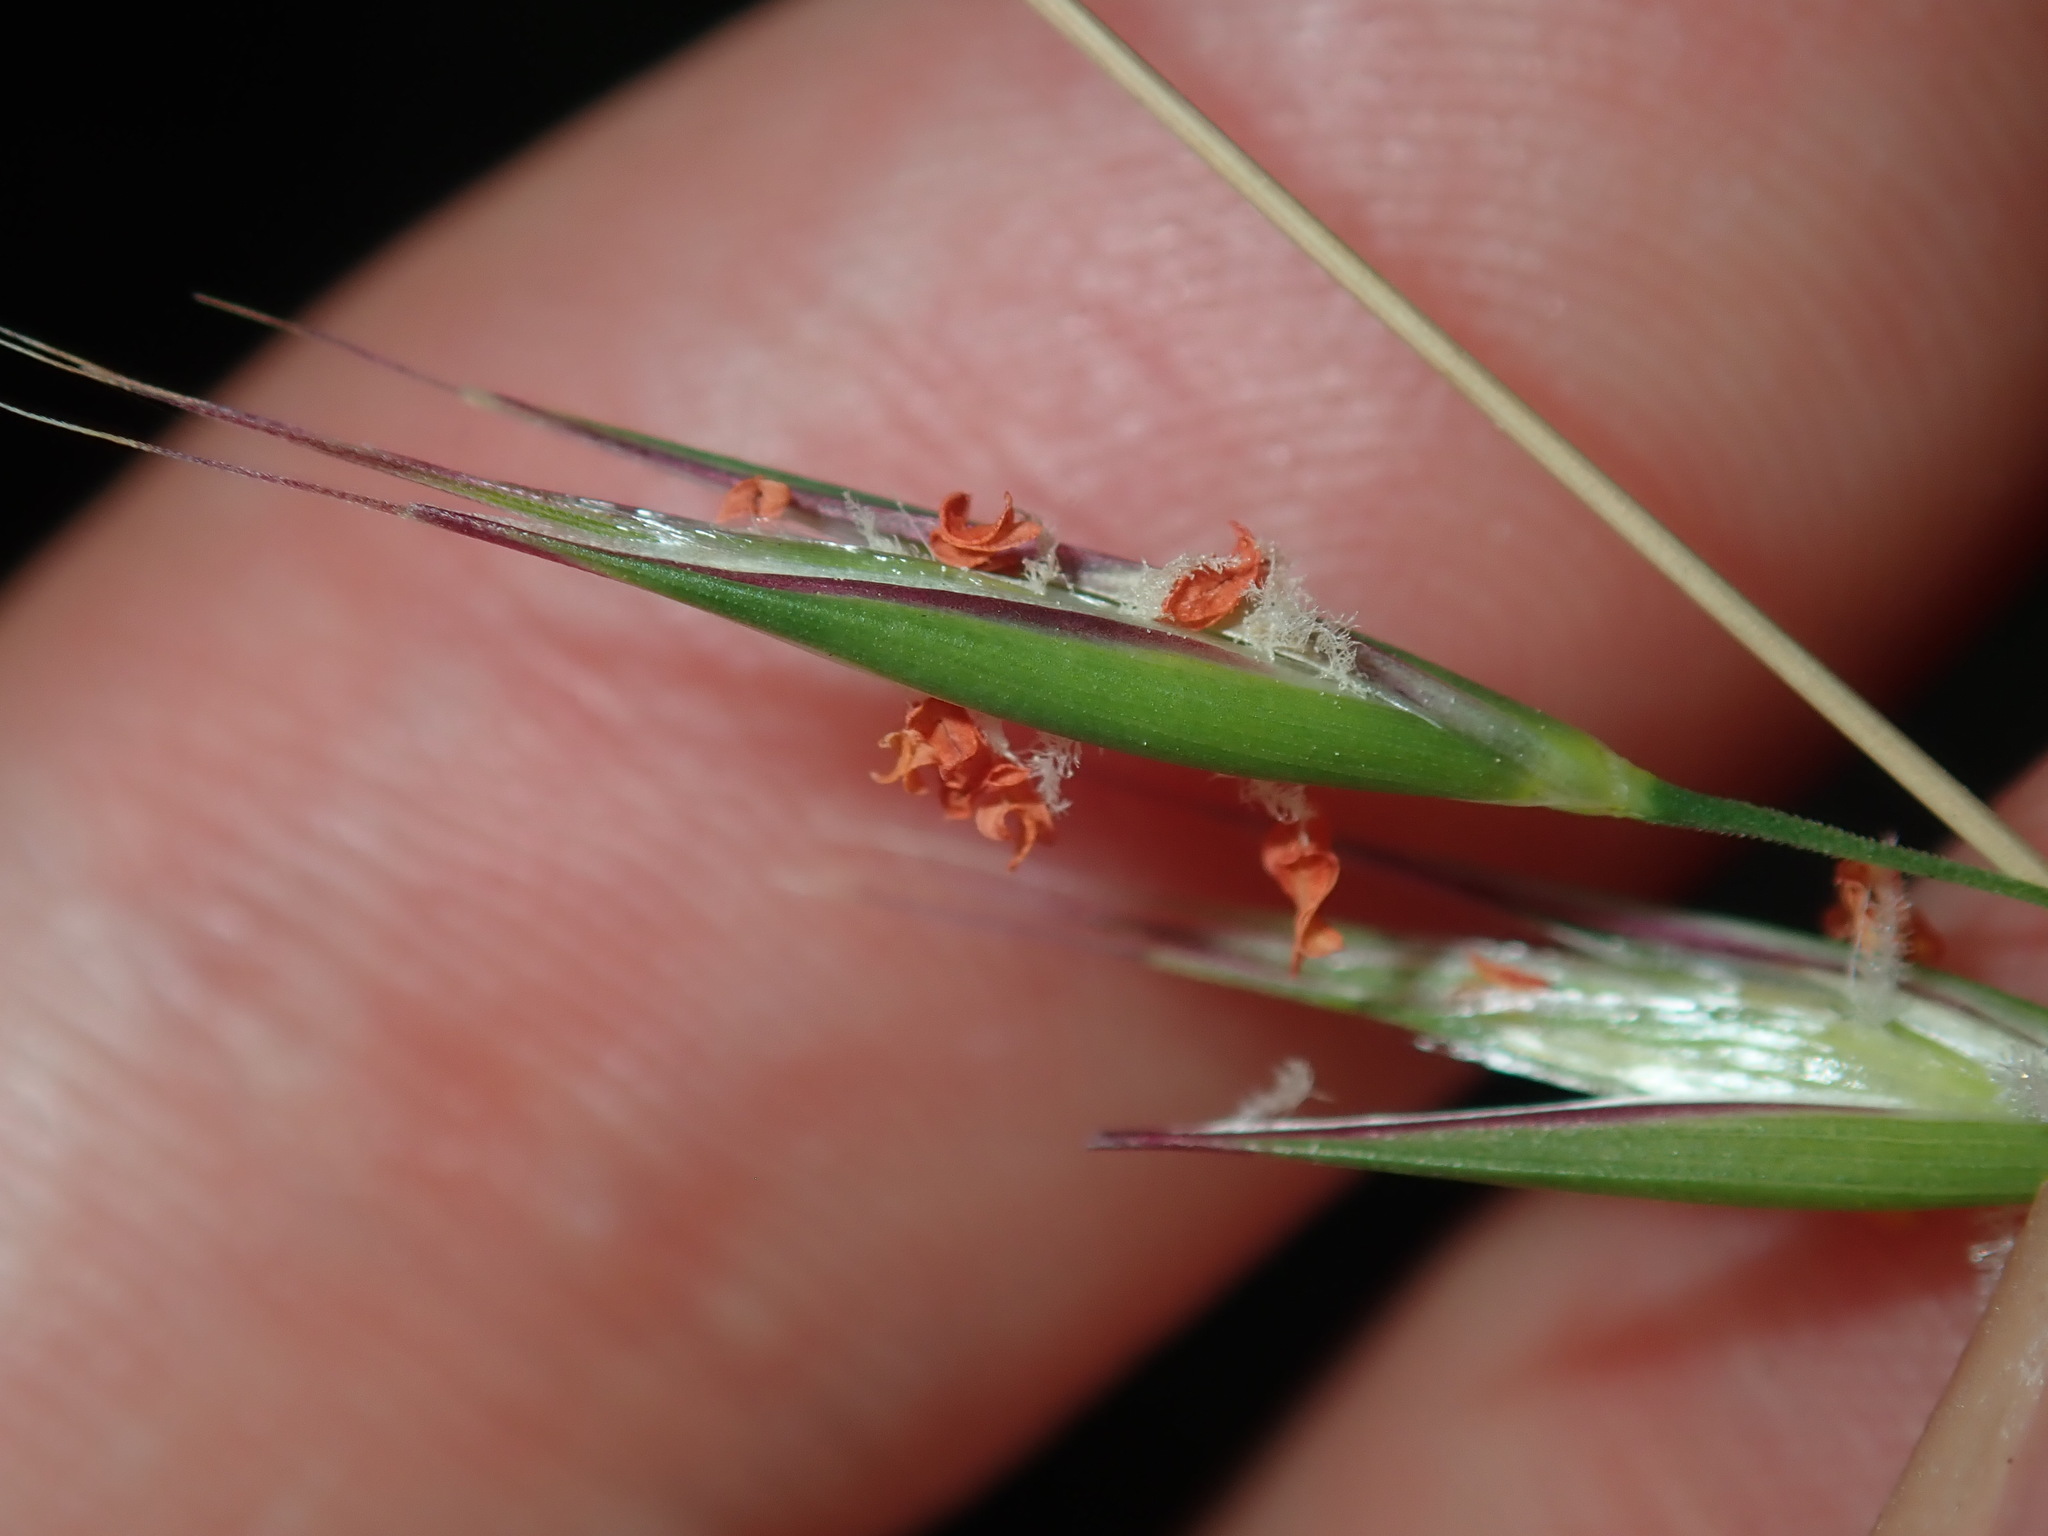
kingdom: Plantae
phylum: Tracheophyta
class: Liliopsida
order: Poales
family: Poaceae
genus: Rytidosperma
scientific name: Rytidosperma pallidum
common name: Red-anther wallaby grass
